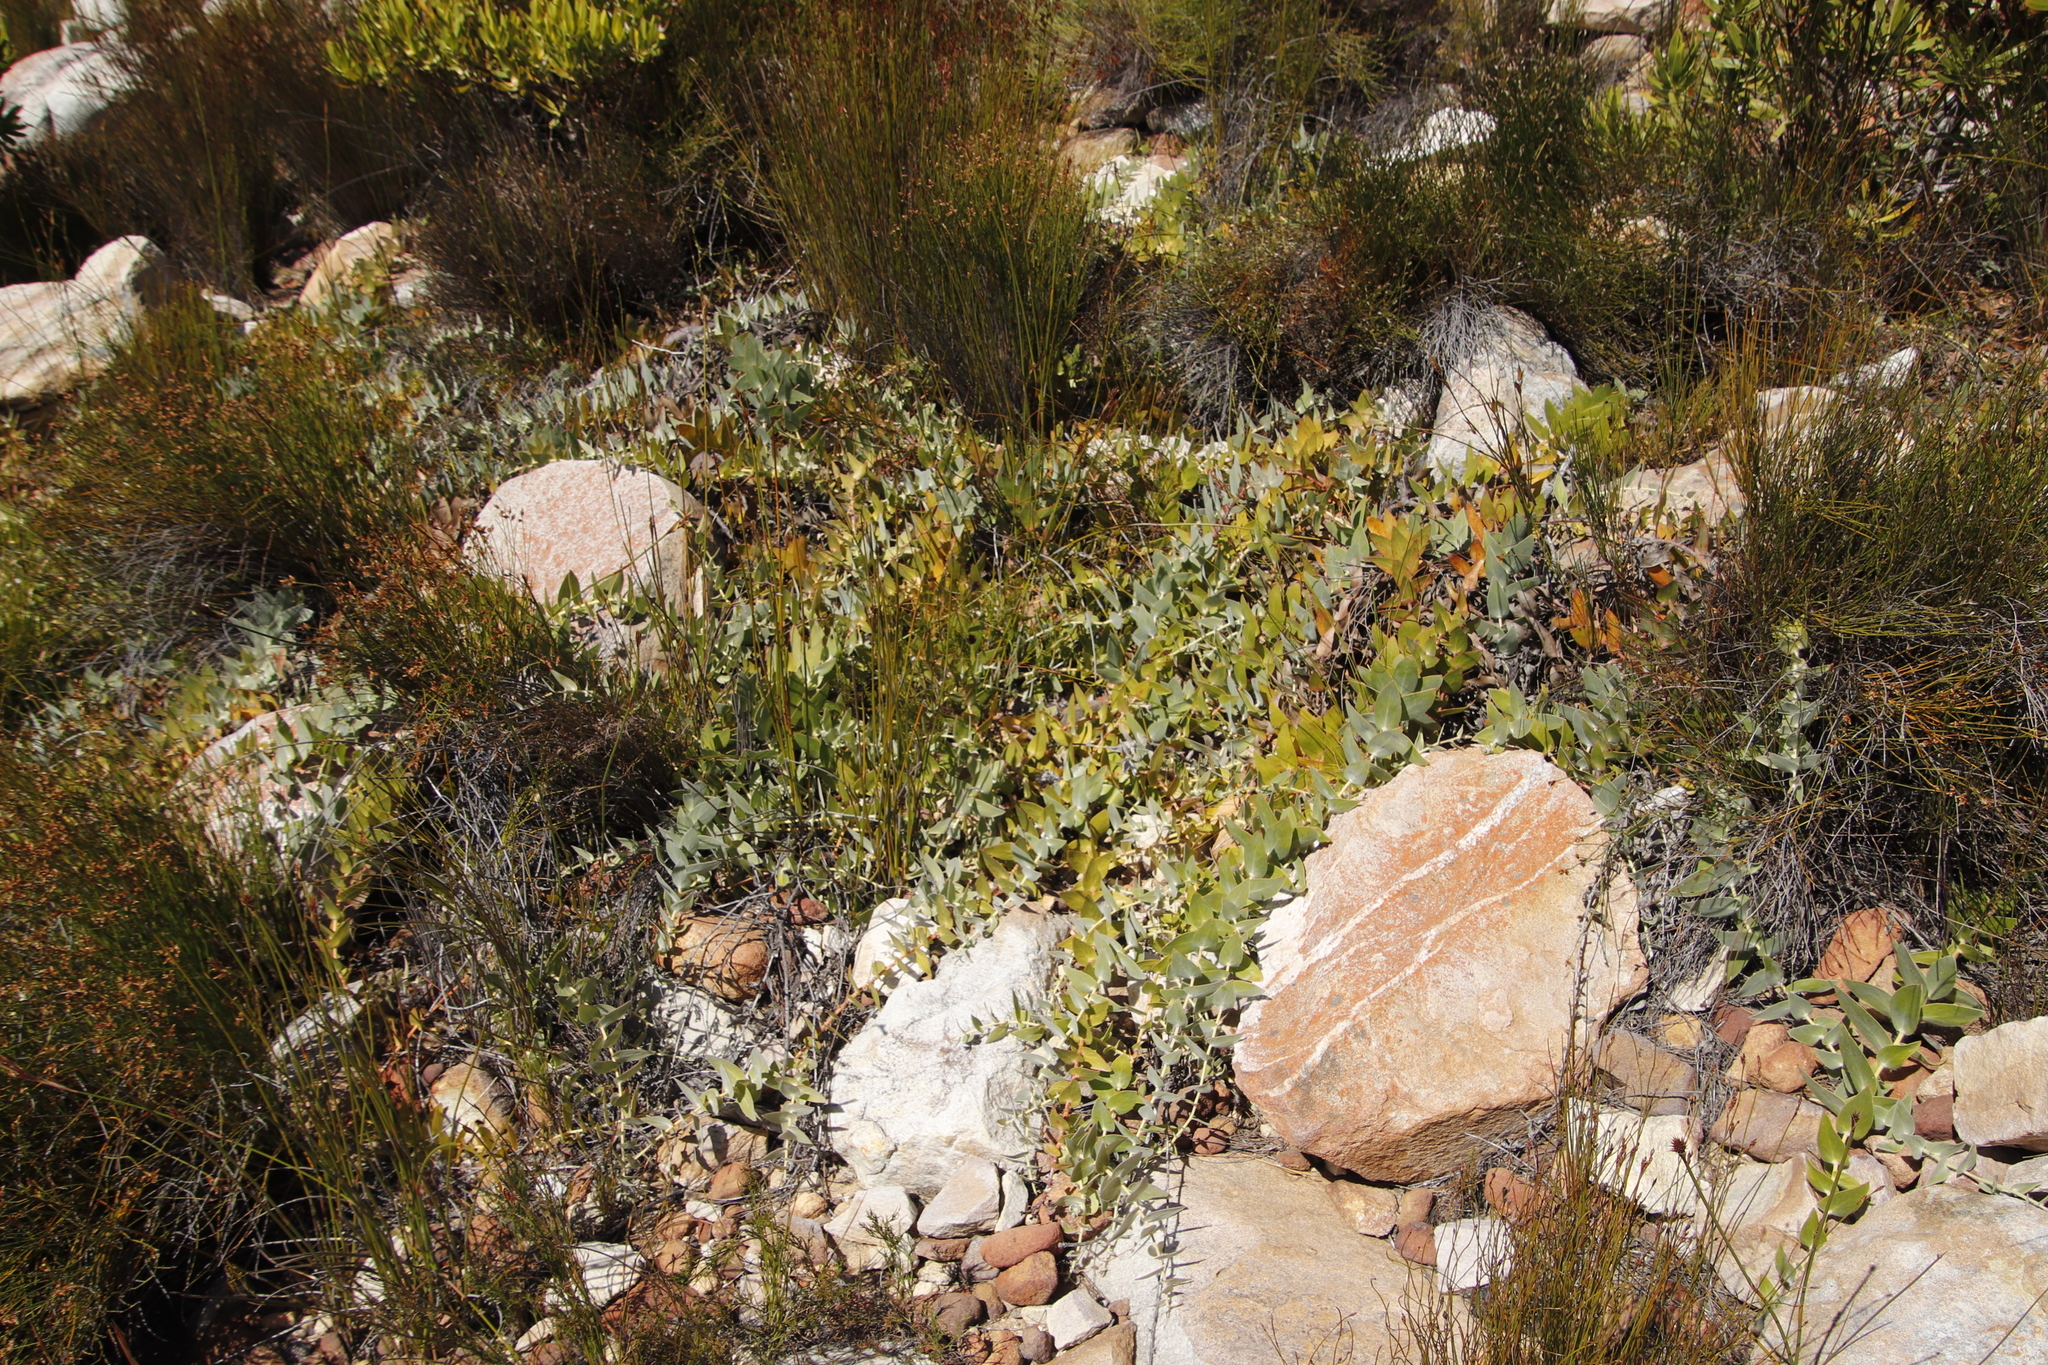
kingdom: Plantae
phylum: Tracheophyta
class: Magnoliopsida
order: Proteales
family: Proteaceae
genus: Leucospermum
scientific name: Leucospermum cordatum
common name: Heart-leaf pincushion
